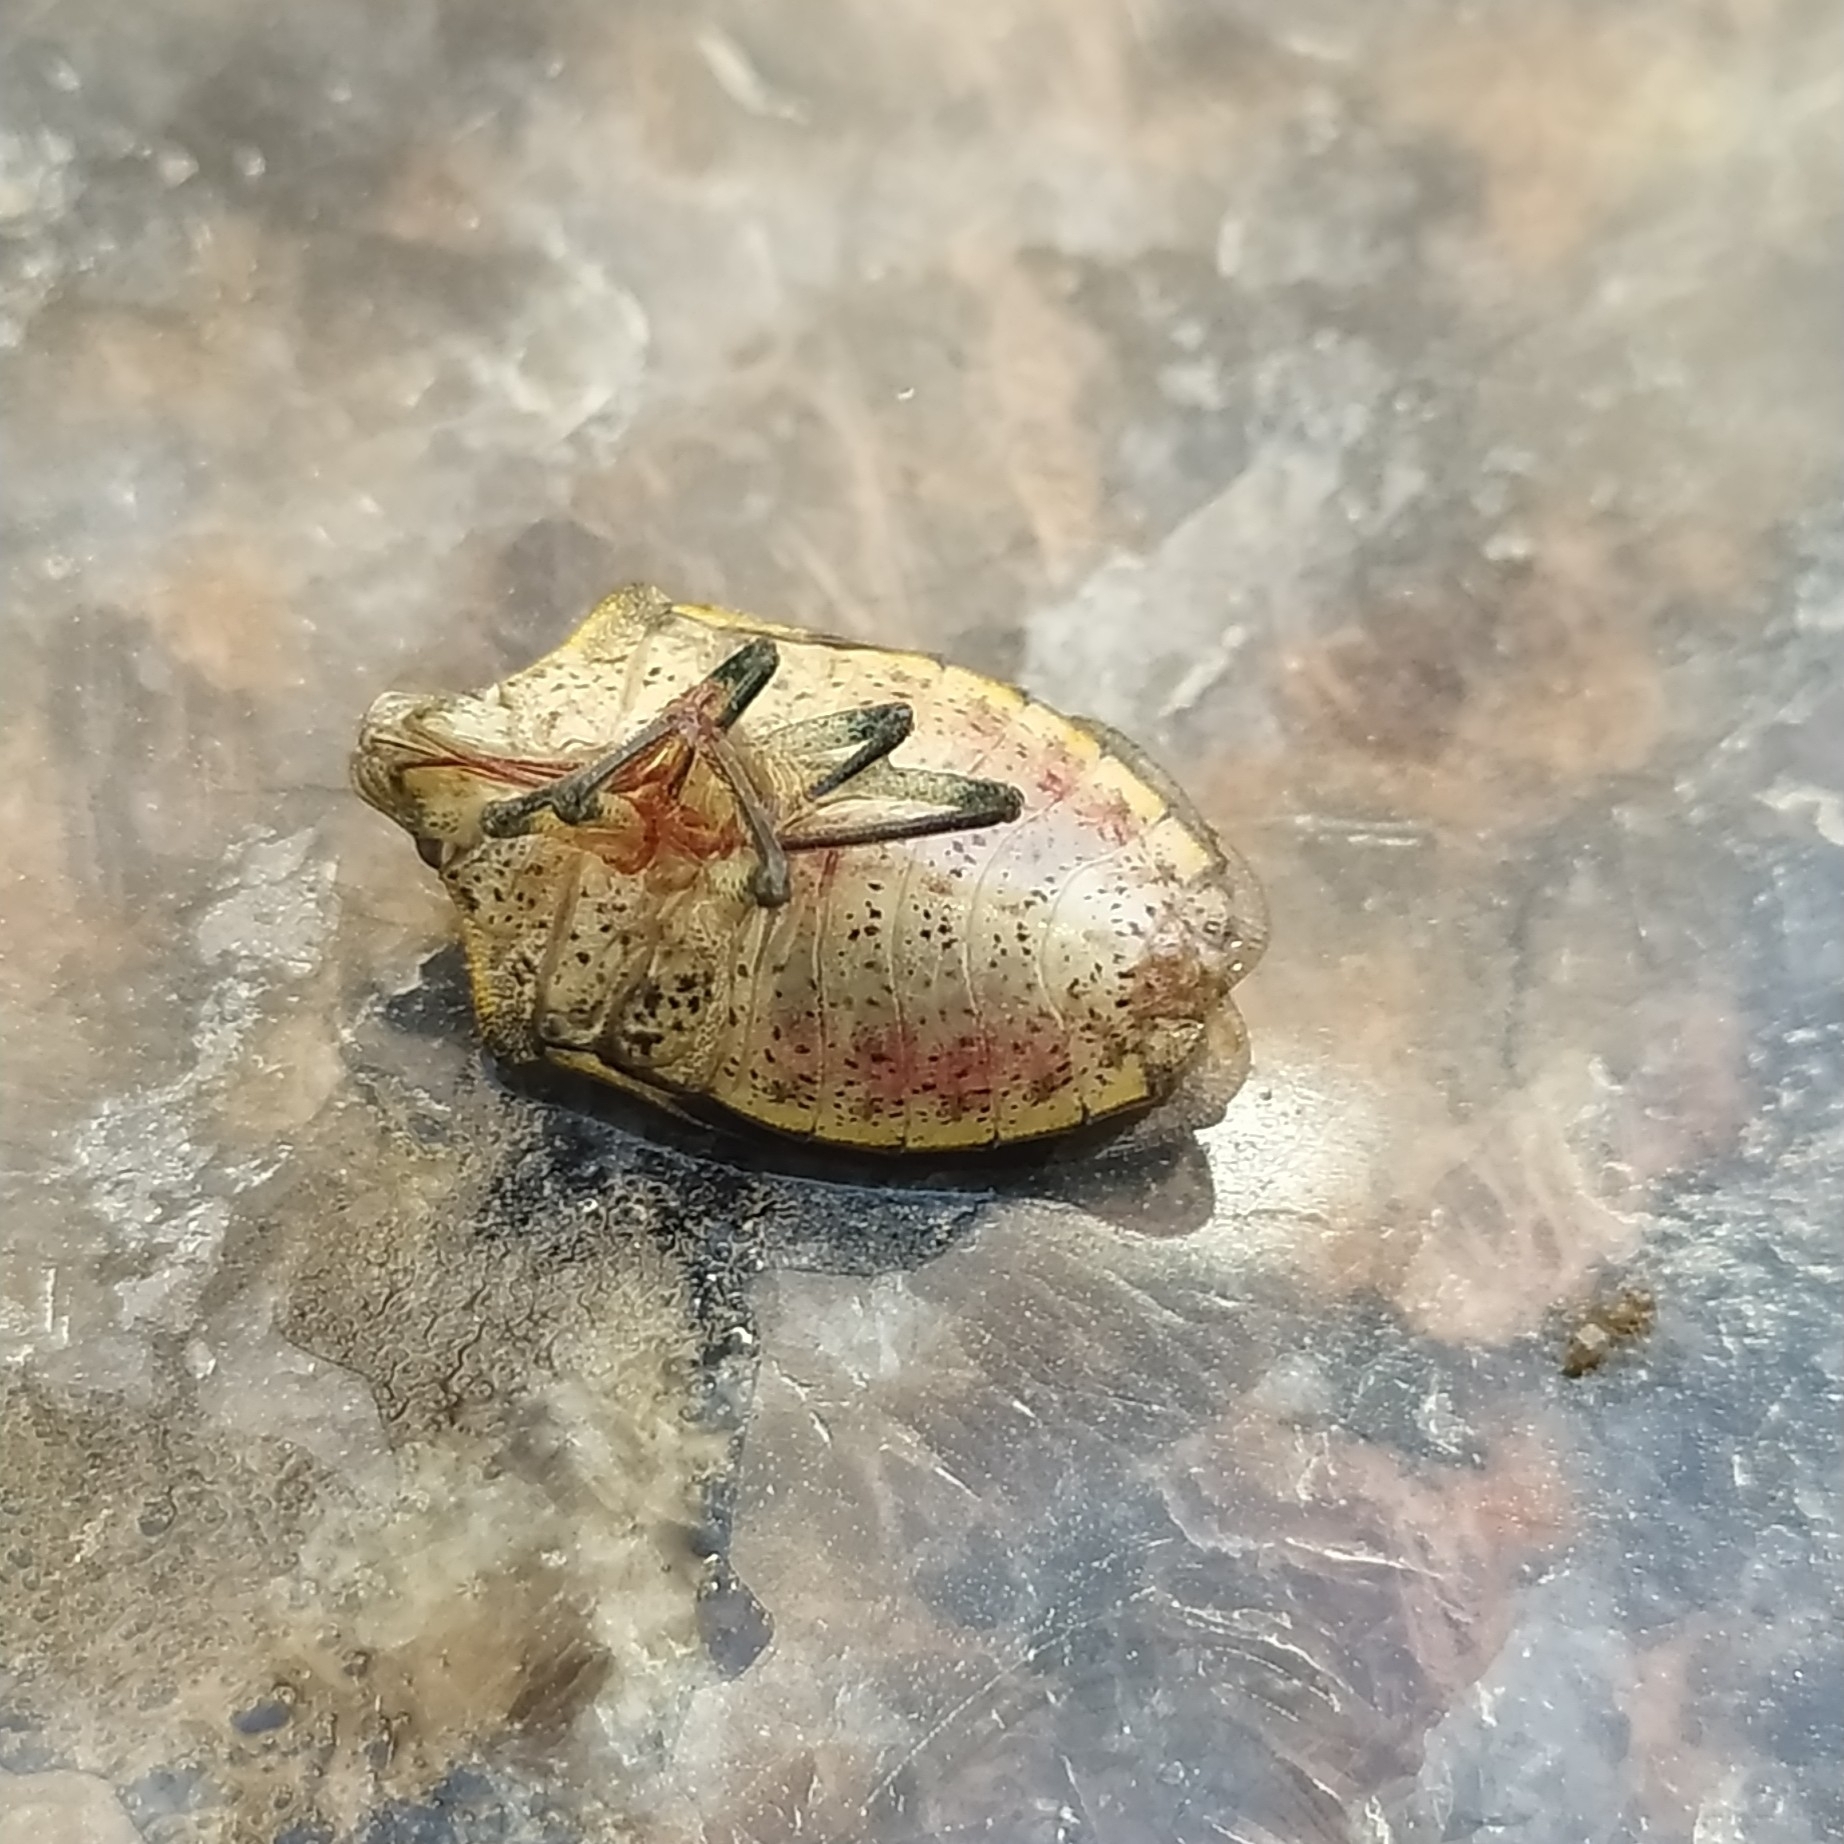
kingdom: Animalia
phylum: Arthropoda
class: Insecta
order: Hemiptera
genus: Alloeoglypta
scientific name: Alloeoglypta
